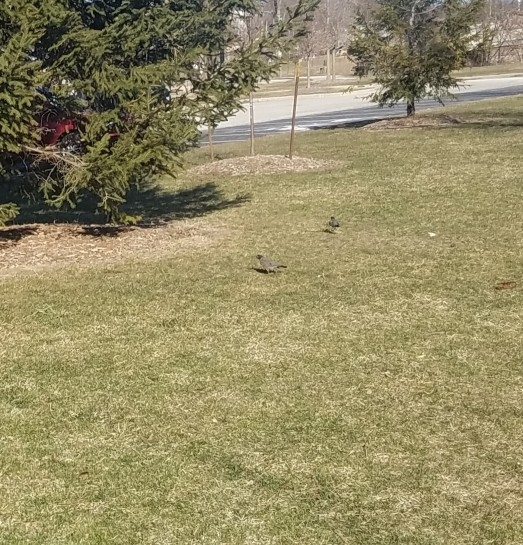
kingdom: Animalia
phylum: Chordata
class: Aves
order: Passeriformes
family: Turdidae
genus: Turdus
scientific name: Turdus migratorius
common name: American robin
